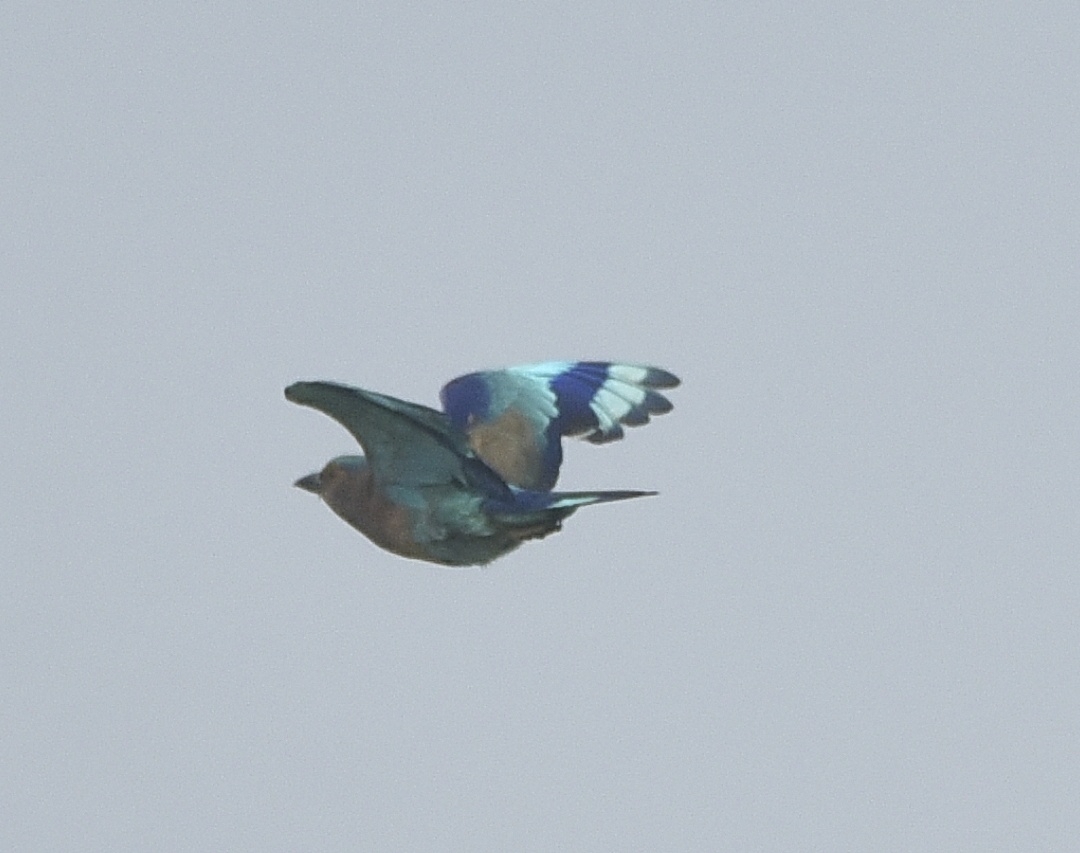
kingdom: Animalia
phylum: Chordata
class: Aves
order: Coraciiformes
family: Coraciidae
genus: Coracias
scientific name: Coracias benghalensis
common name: Indian roller
